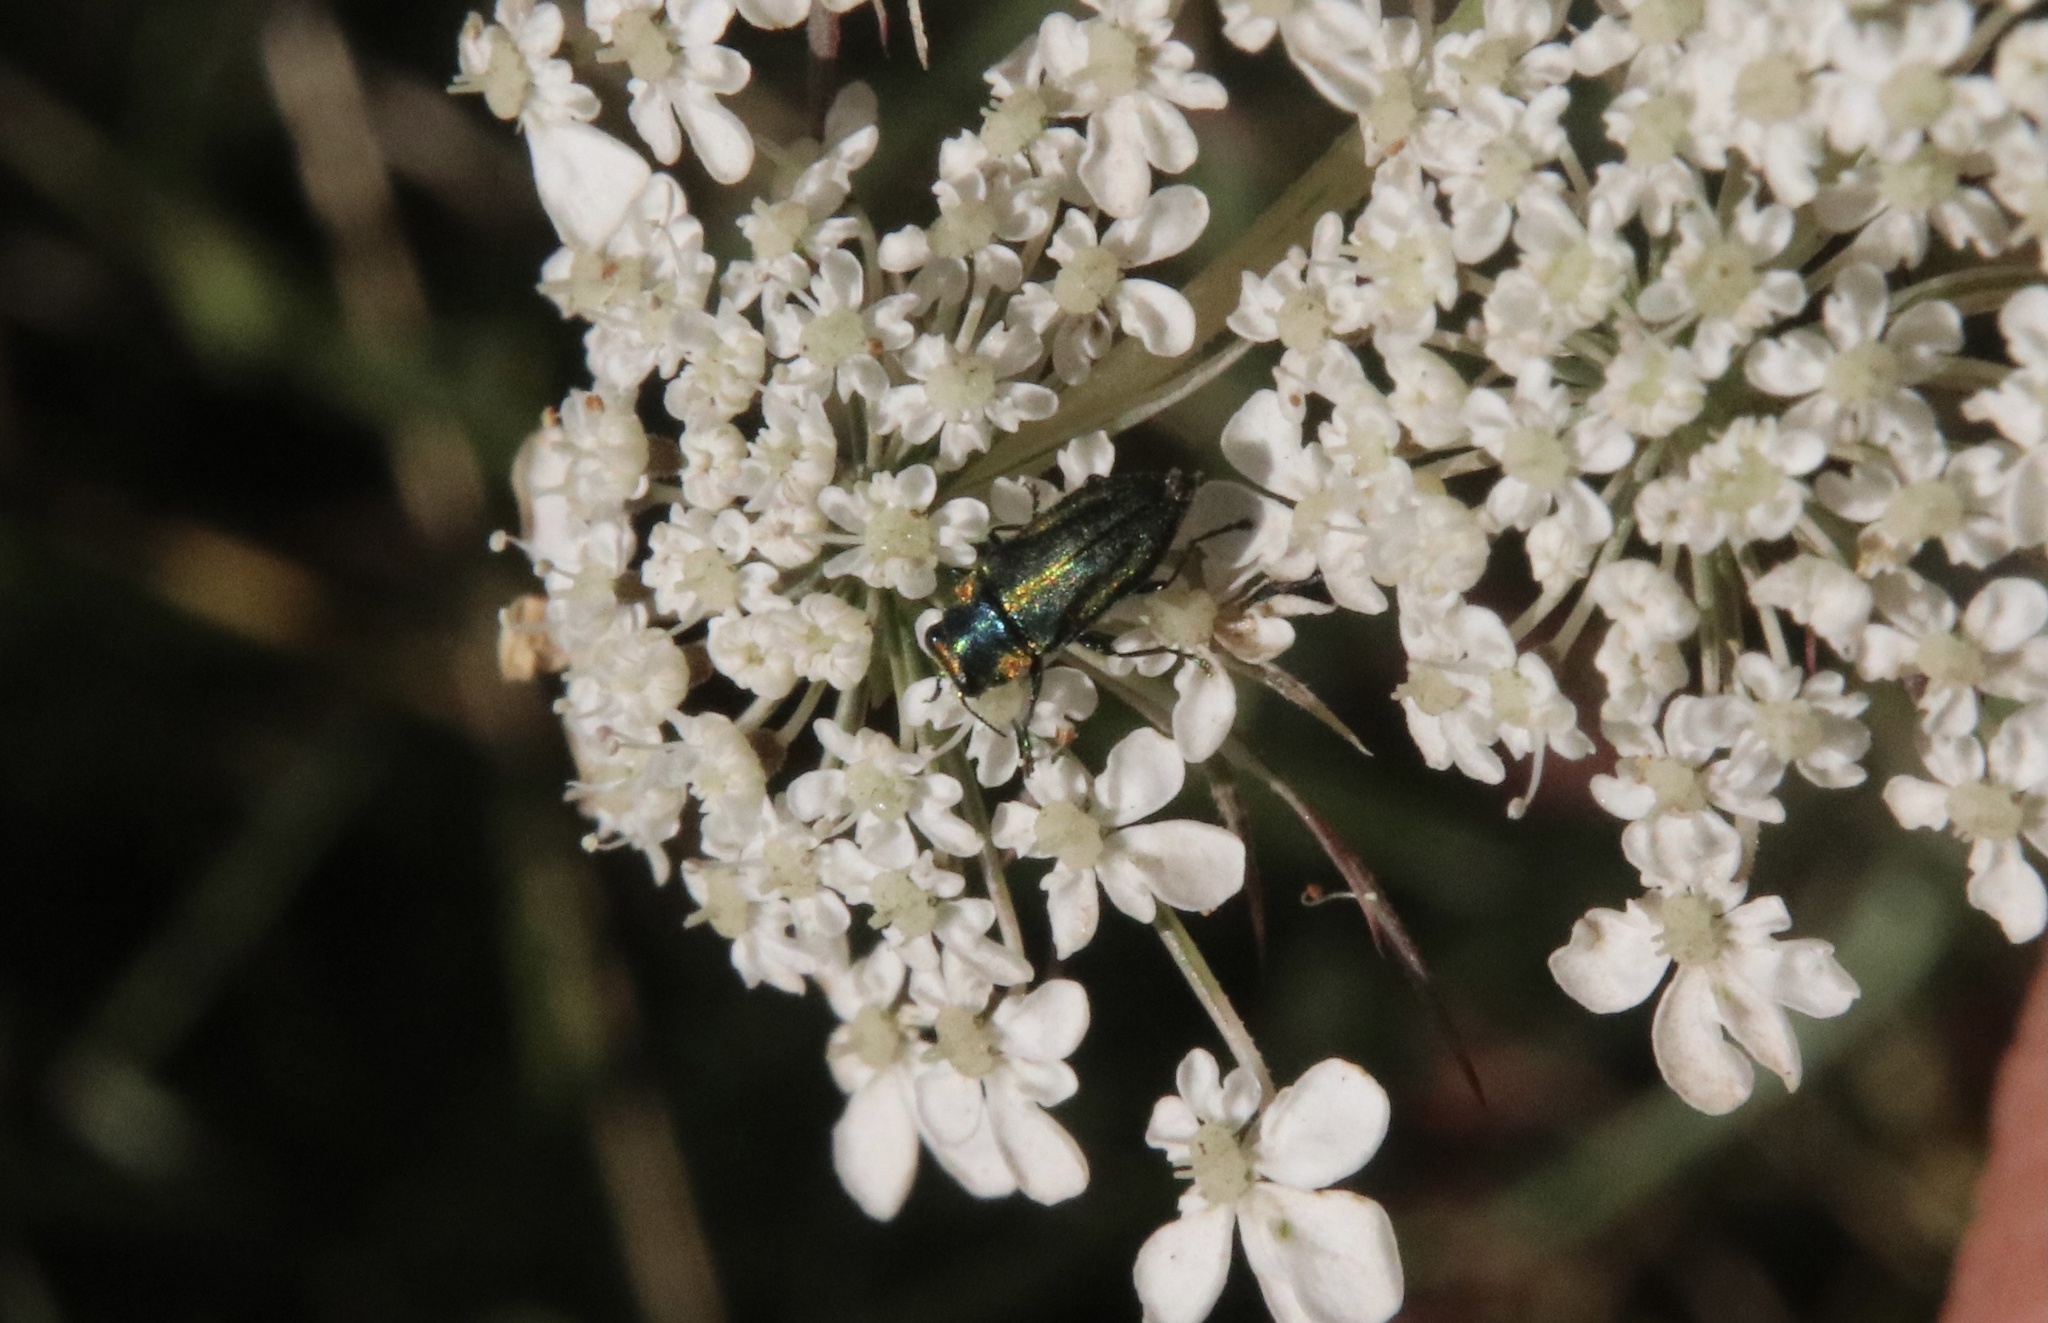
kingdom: Animalia
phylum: Arthropoda
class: Insecta
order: Coleoptera
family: Buprestidae
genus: Bilyaxia
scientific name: Bilyaxia cordillerae
